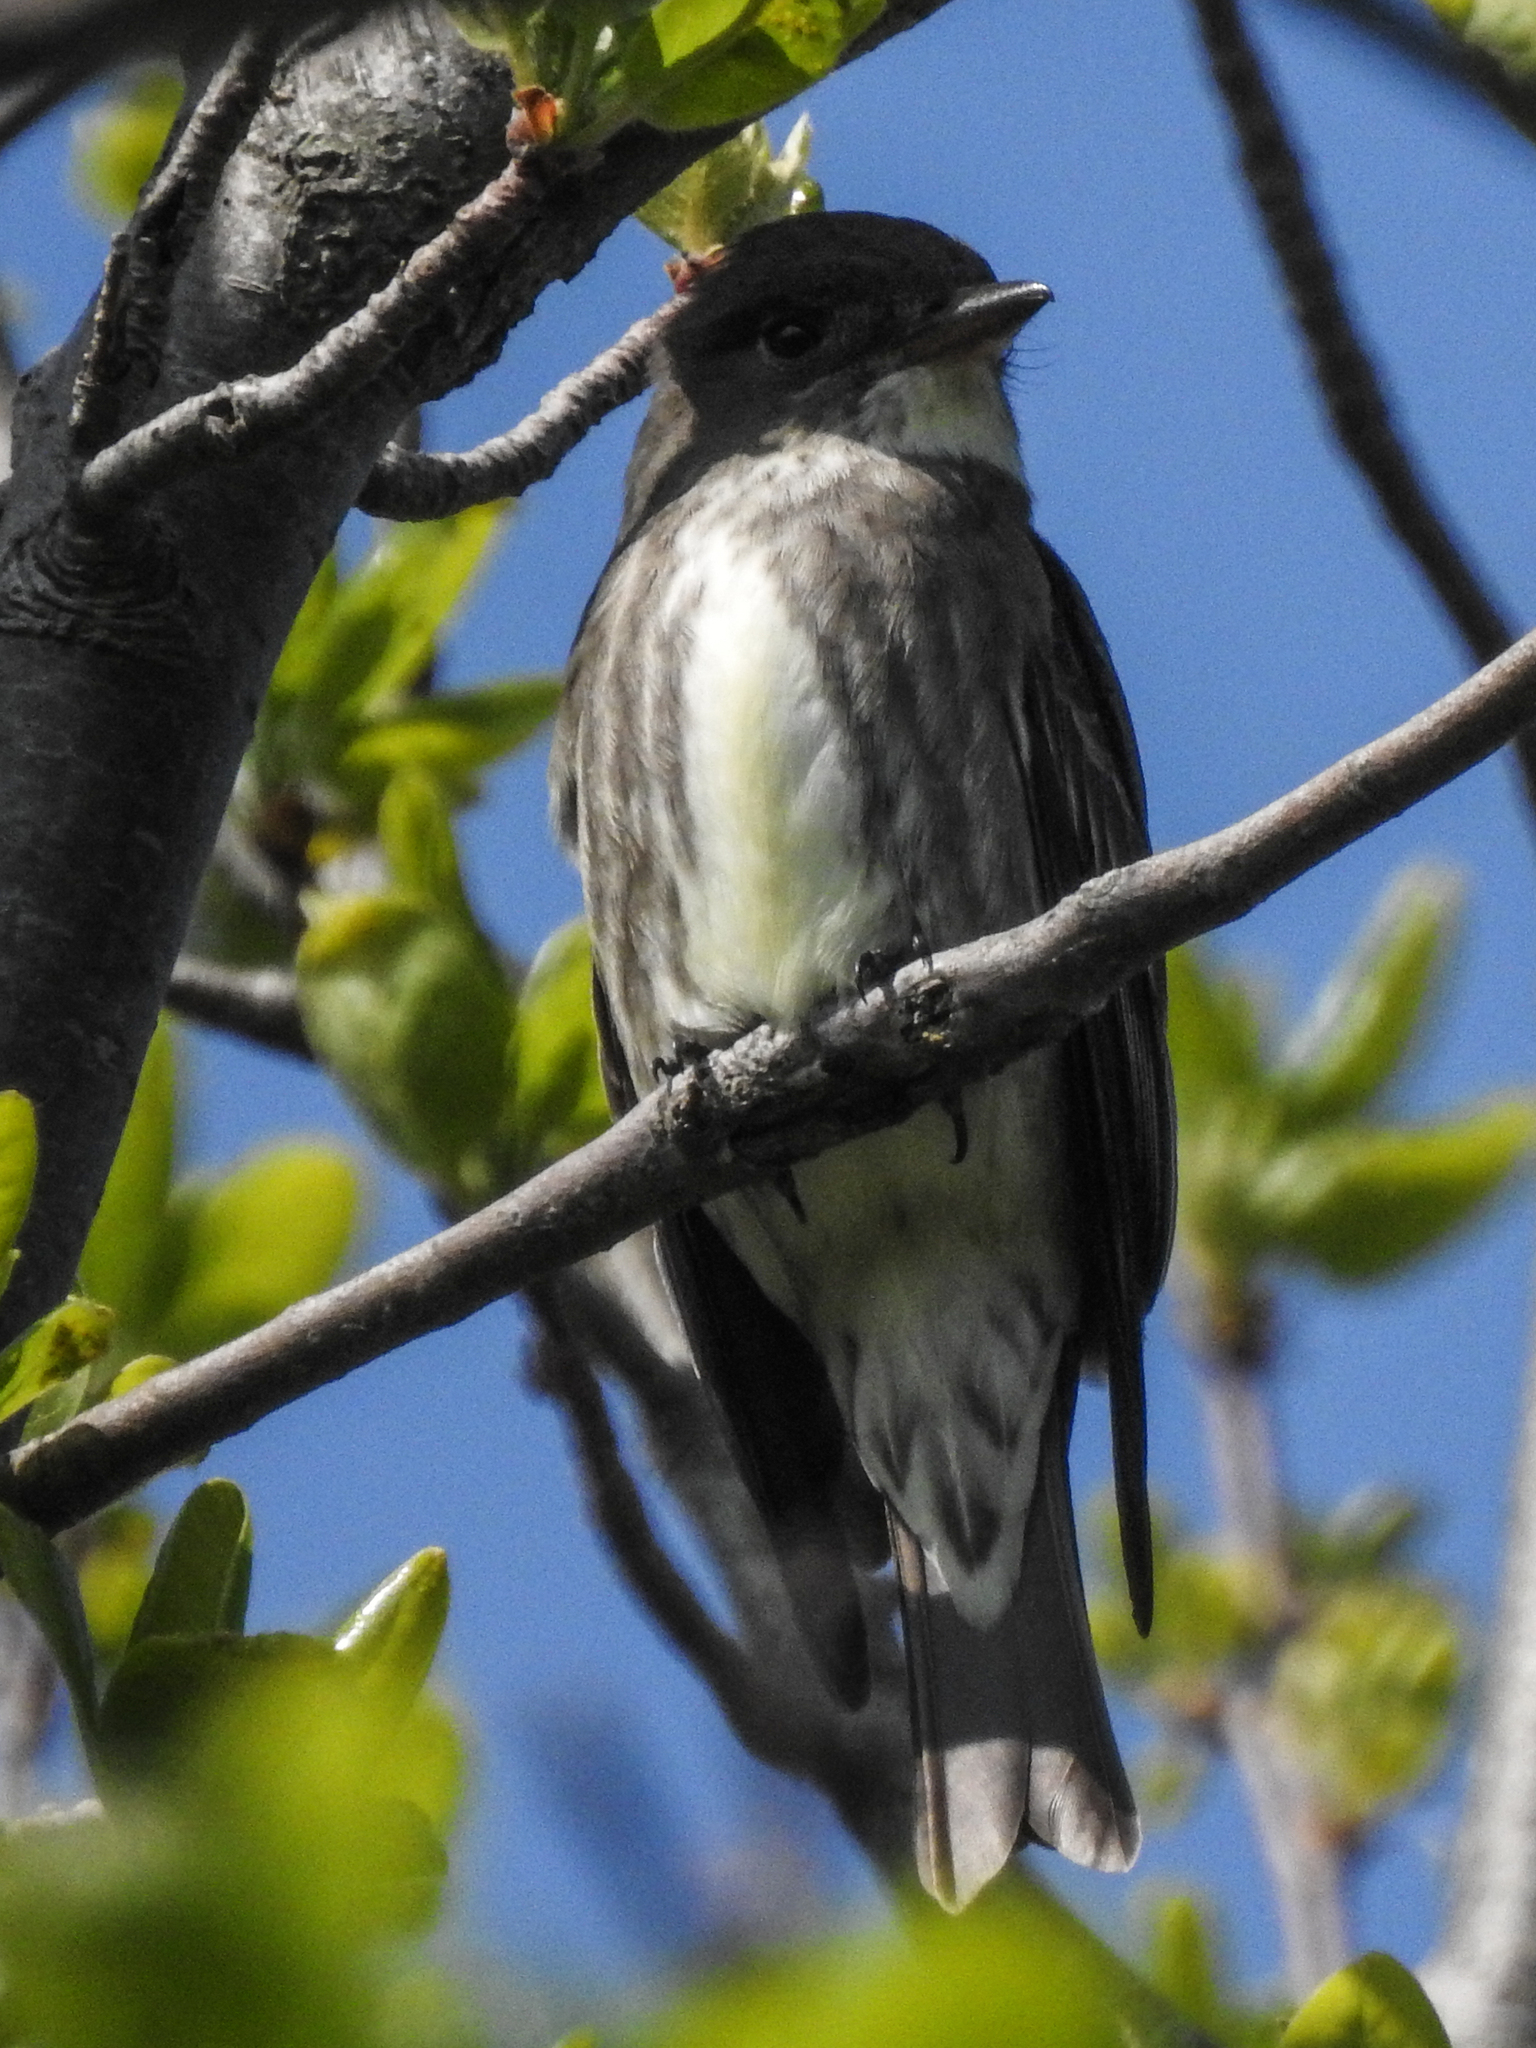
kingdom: Animalia
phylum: Chordata
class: Aves
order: Passeriformes
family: Tyrannidae
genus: Contopus
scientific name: Contopus cooperi
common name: Olive-sided flycatcher
